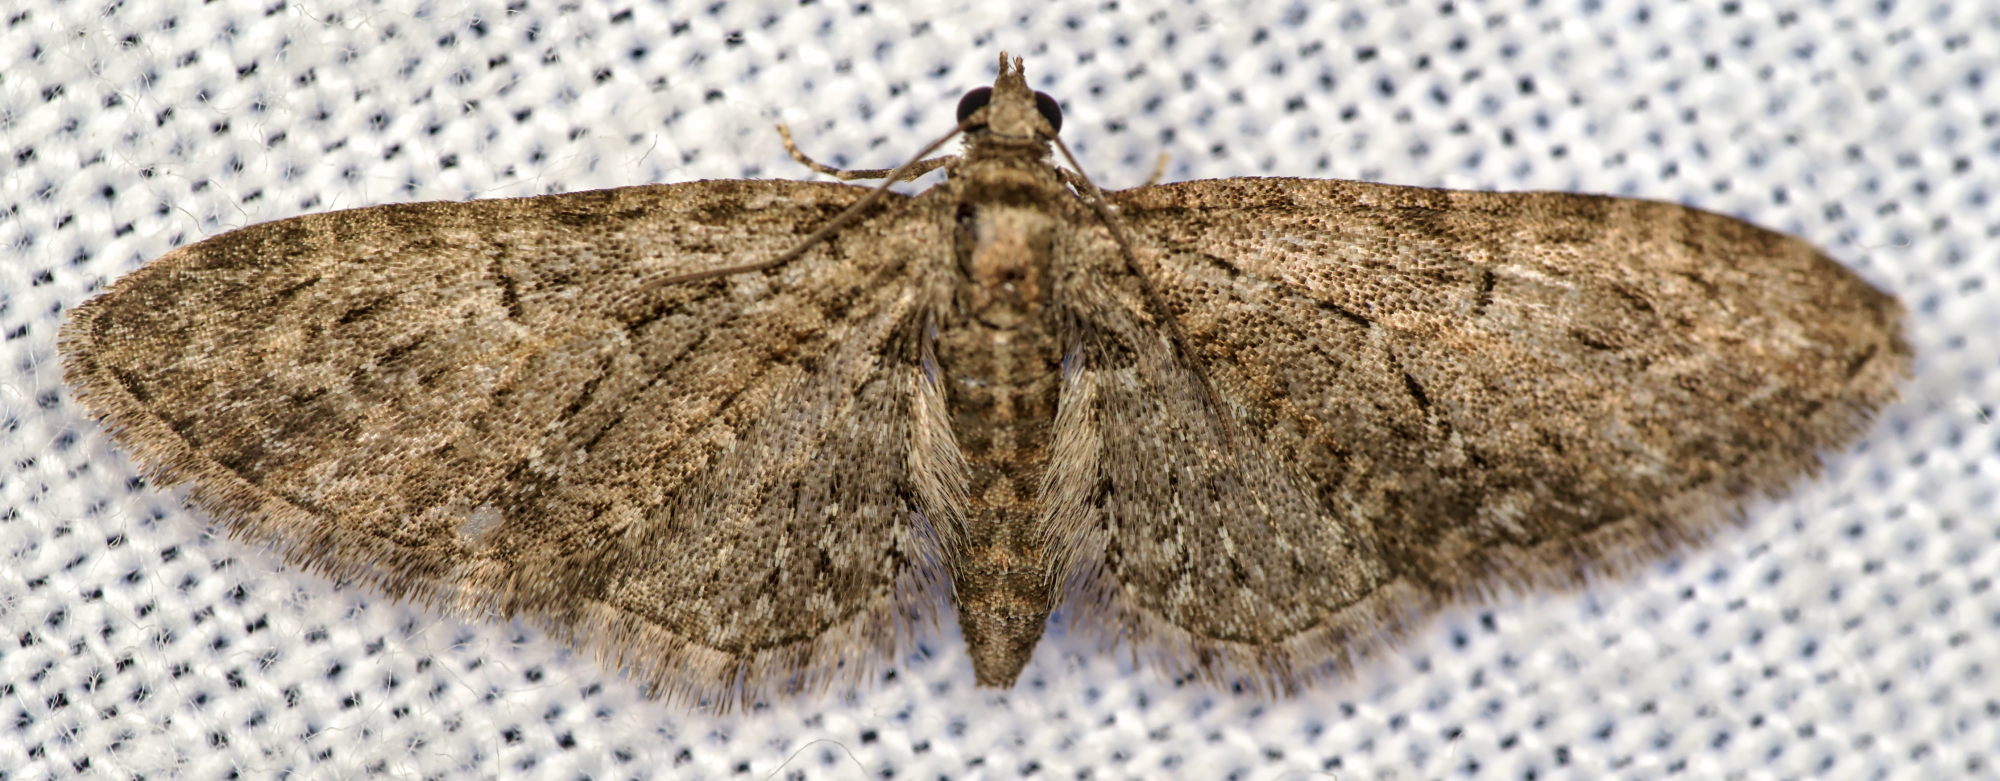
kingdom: Animalia
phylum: Arthropoda
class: Insecta
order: Lepidoptera
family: Geometridae
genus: Eupithecia
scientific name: Eupithecia abbreviata
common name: Brindled pug
